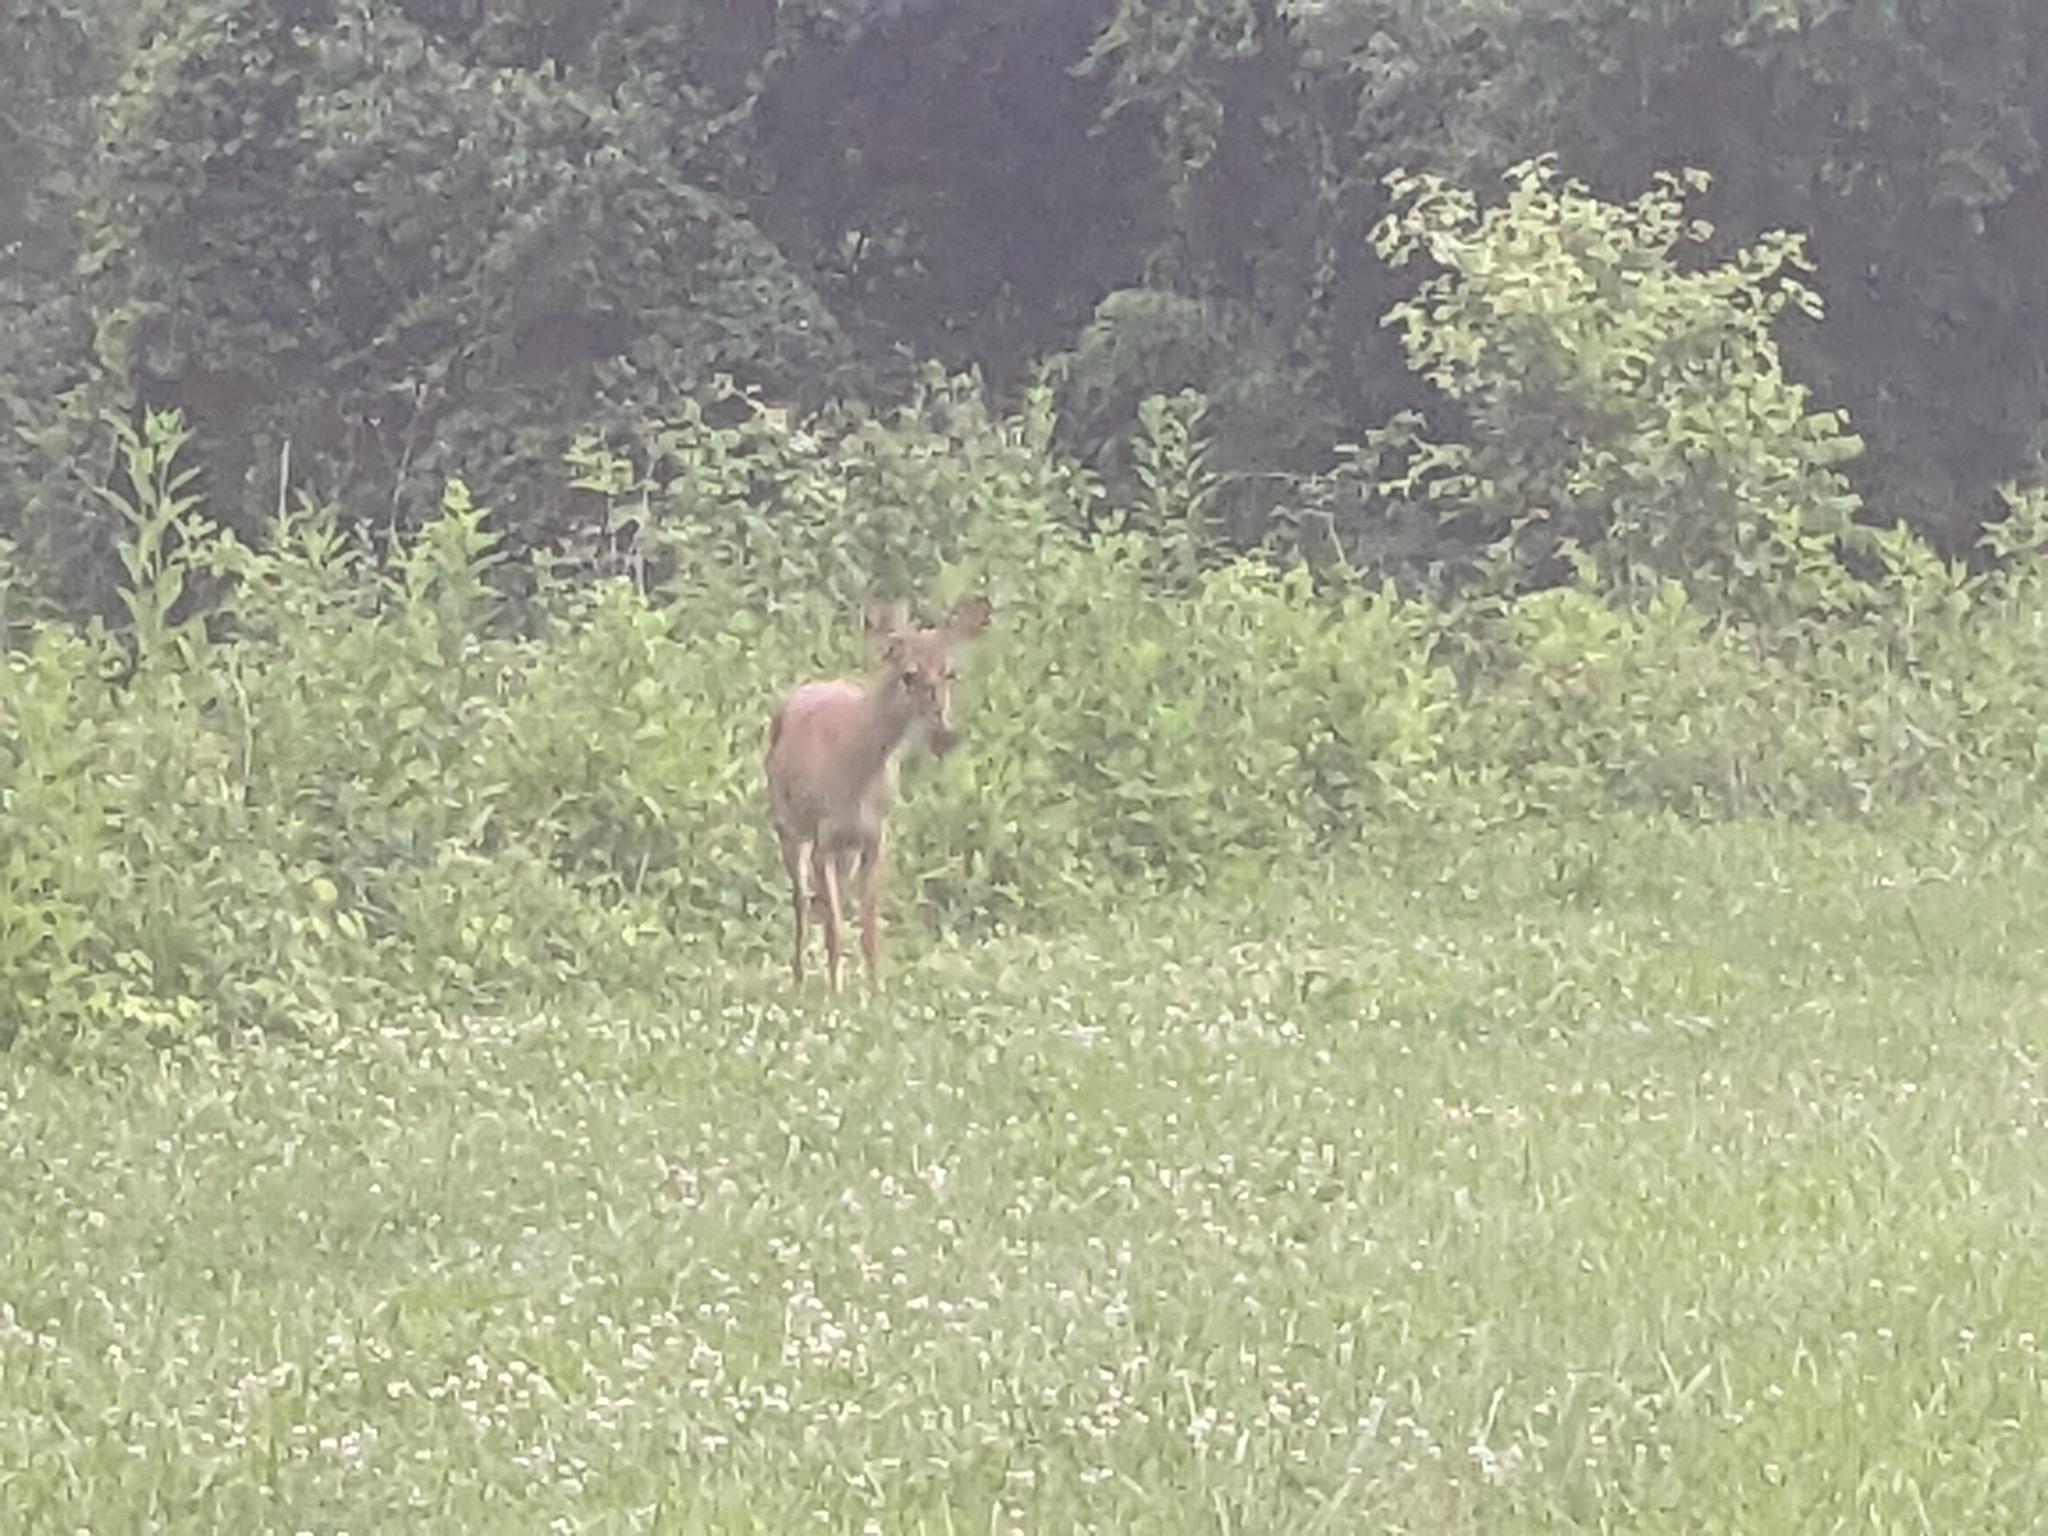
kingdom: Animalia
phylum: Chordata
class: Mammalia
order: Artiodactyla
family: Cervidae
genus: Odocoileus
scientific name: Odocoileus virginianus
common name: White-tailed deer
